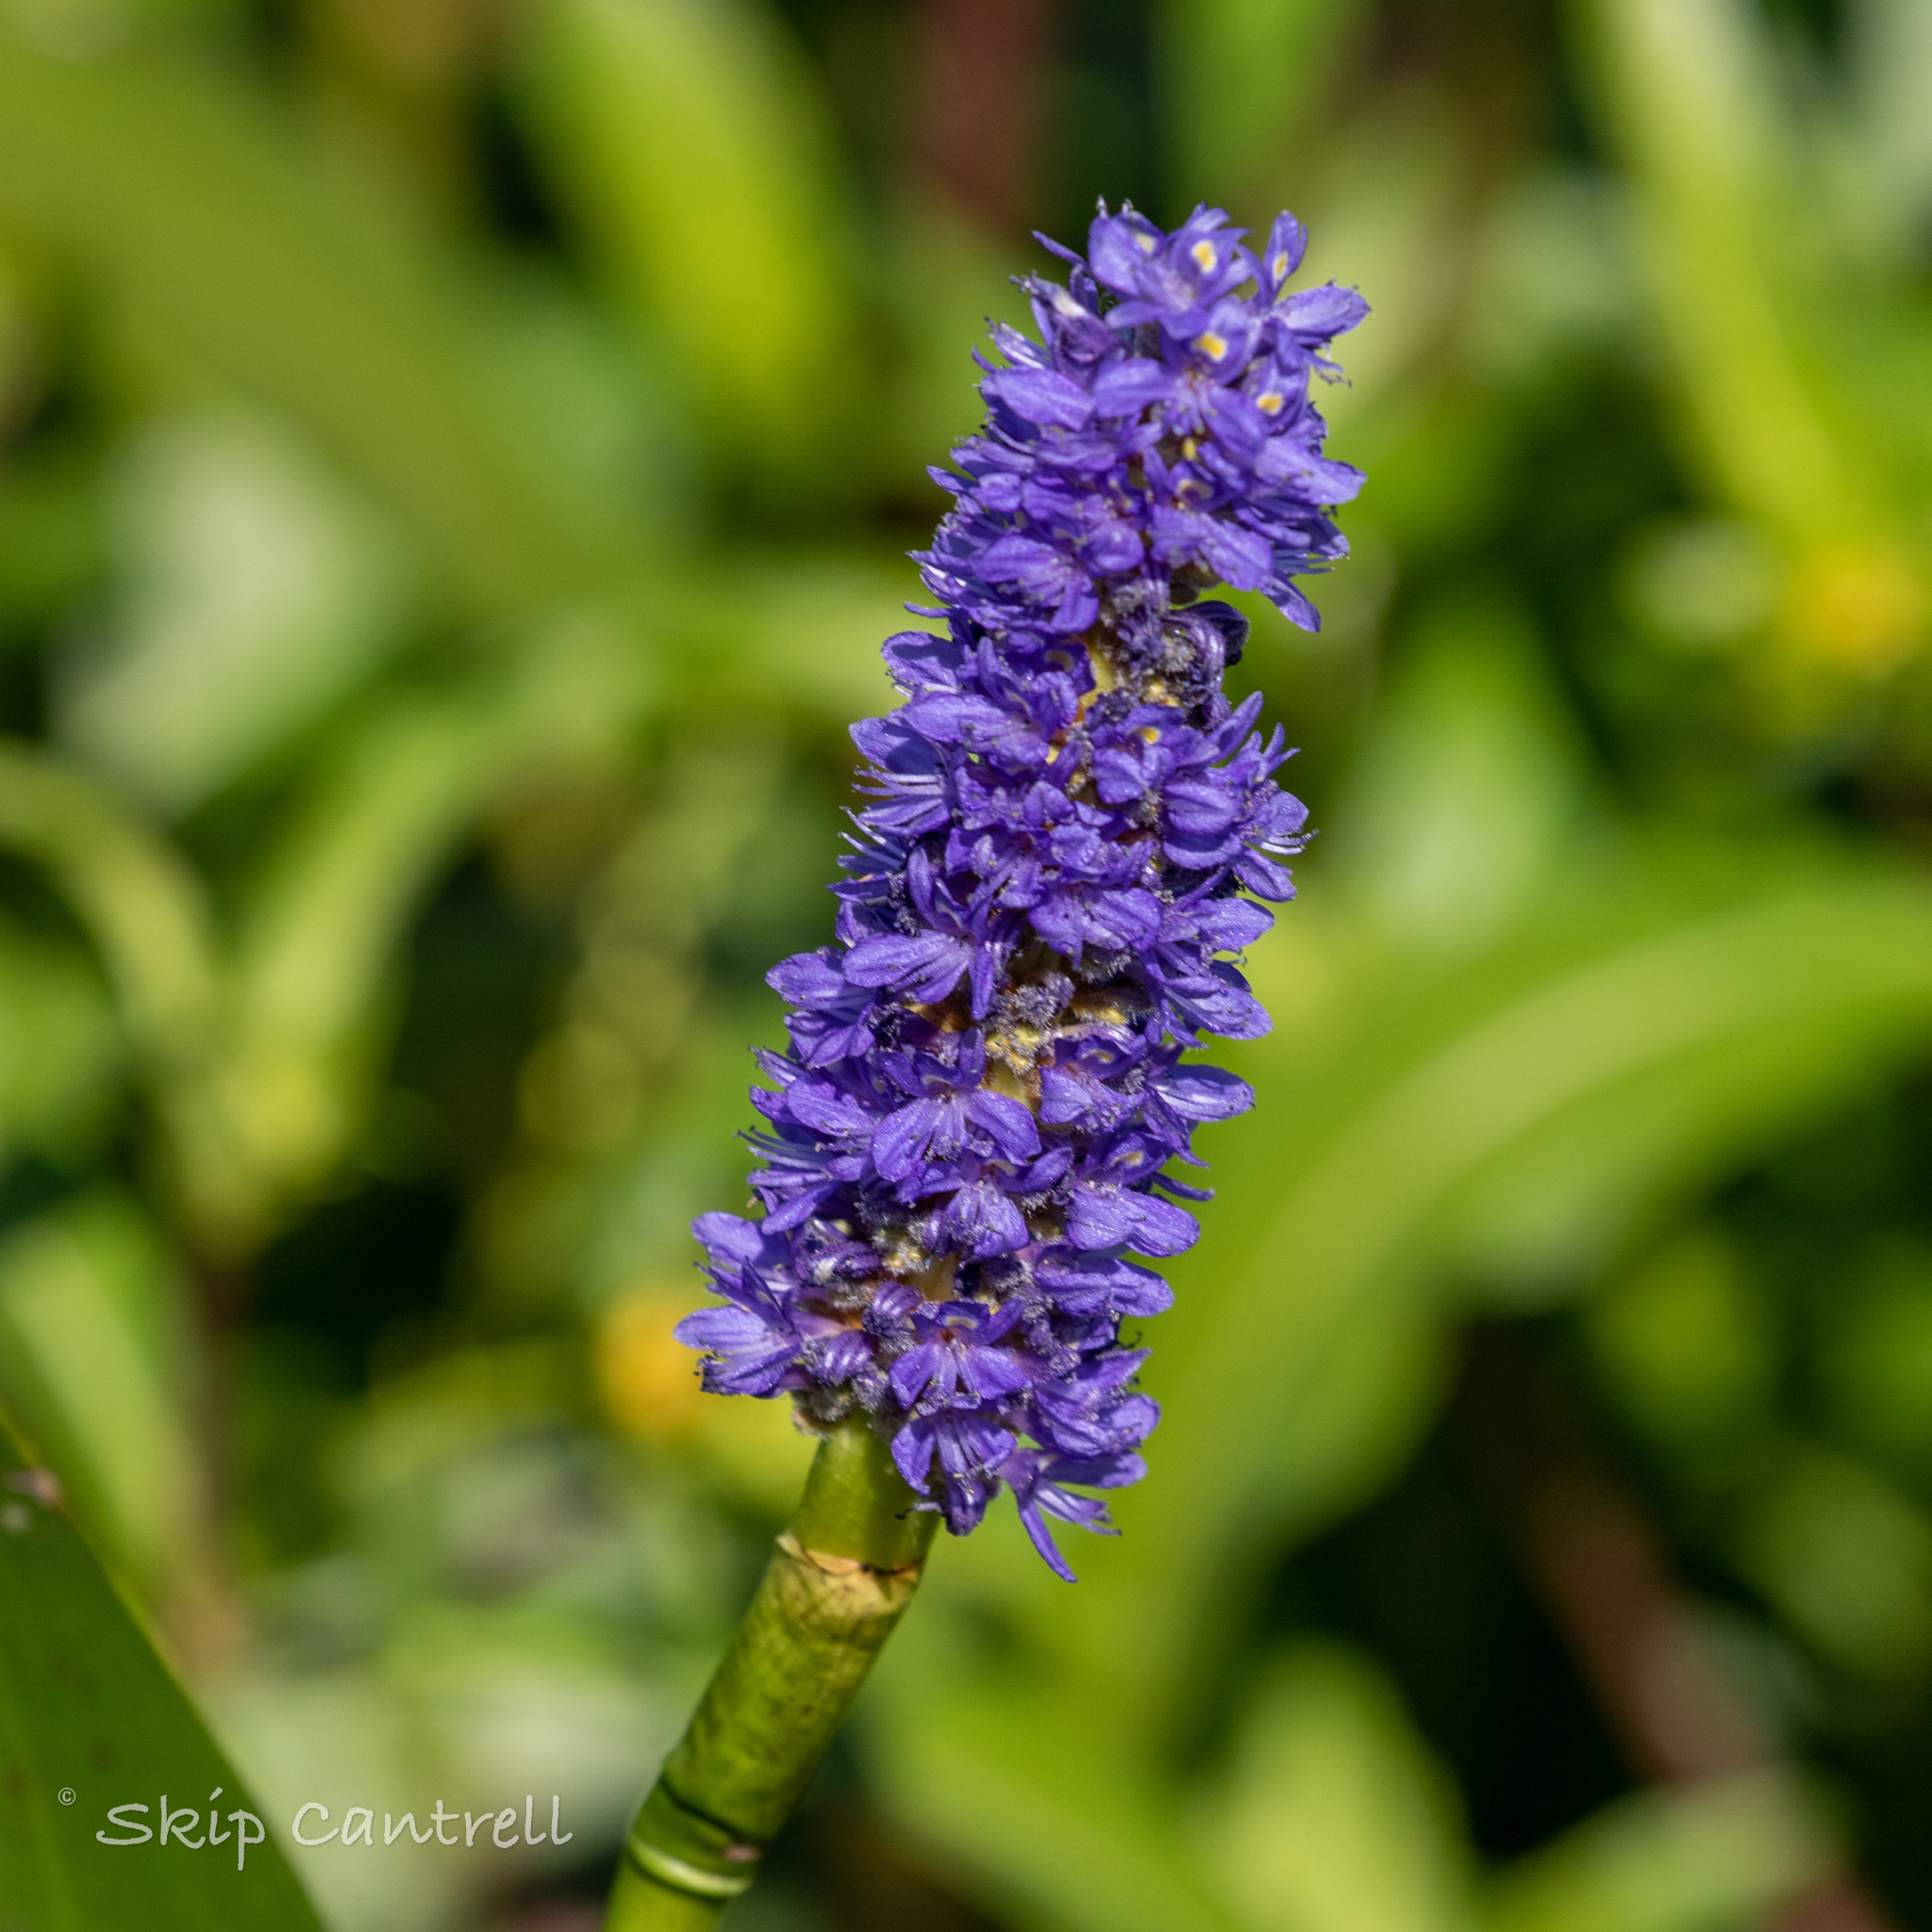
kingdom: Plantae
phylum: Tracheophyta
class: Liliopsida
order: Commelinales
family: Pontederiaceae
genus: Pontederia
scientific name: Pontederia cordata
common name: Pickerelweed
